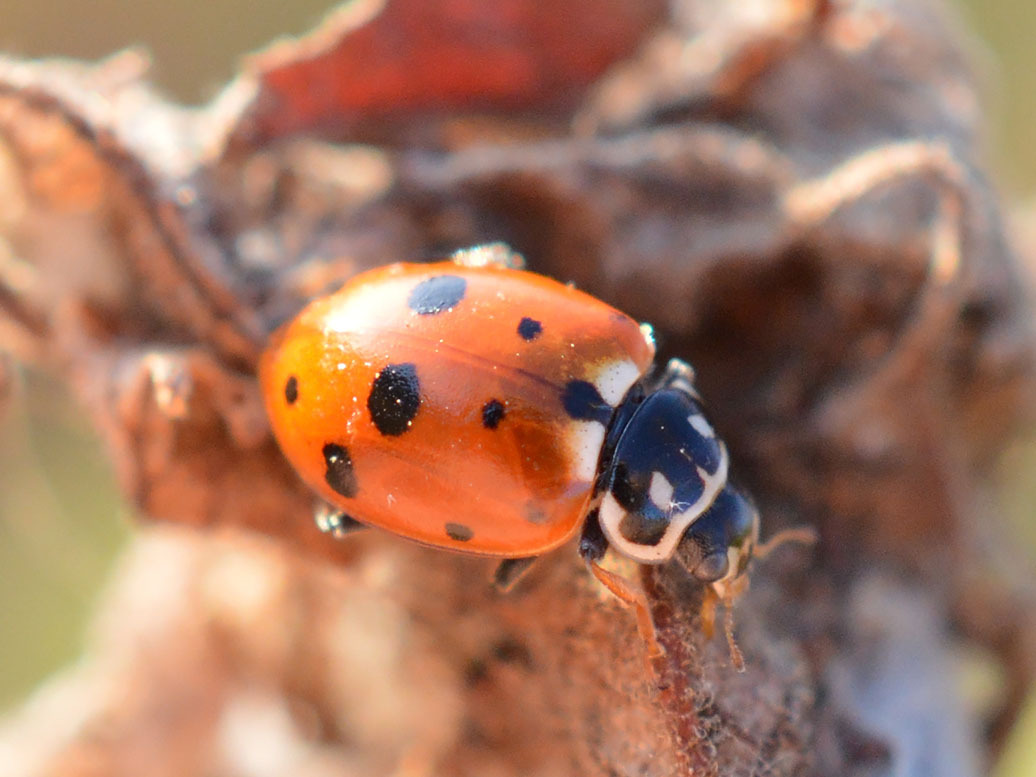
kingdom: Animalia
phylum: Arthropoda
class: Insecta
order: Coleoptera
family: Coccinellidae
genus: Hippodamia
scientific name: Hippodamia variegata
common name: Ladybird beetle
